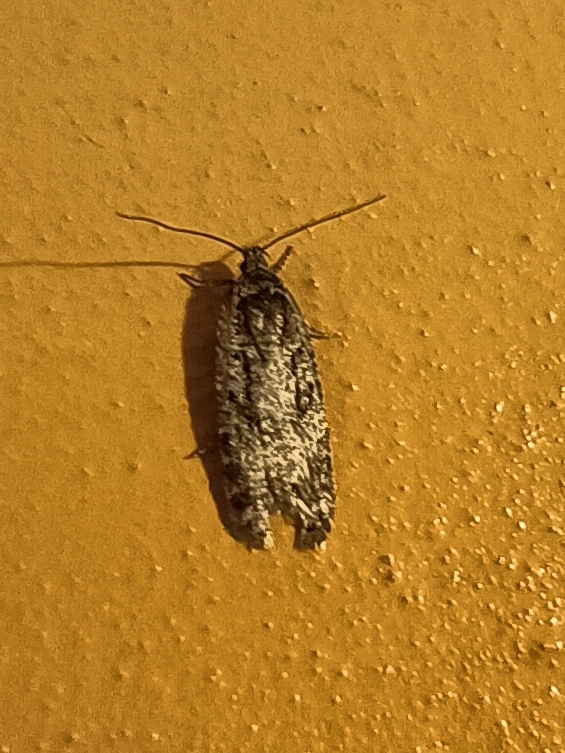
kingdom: Animalia
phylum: Arthropoda
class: Insecta
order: Lepidoptera
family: Depressariidae
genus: Exaeretia
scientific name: Exaeretia ciniflonella
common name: Scotch flat-body
